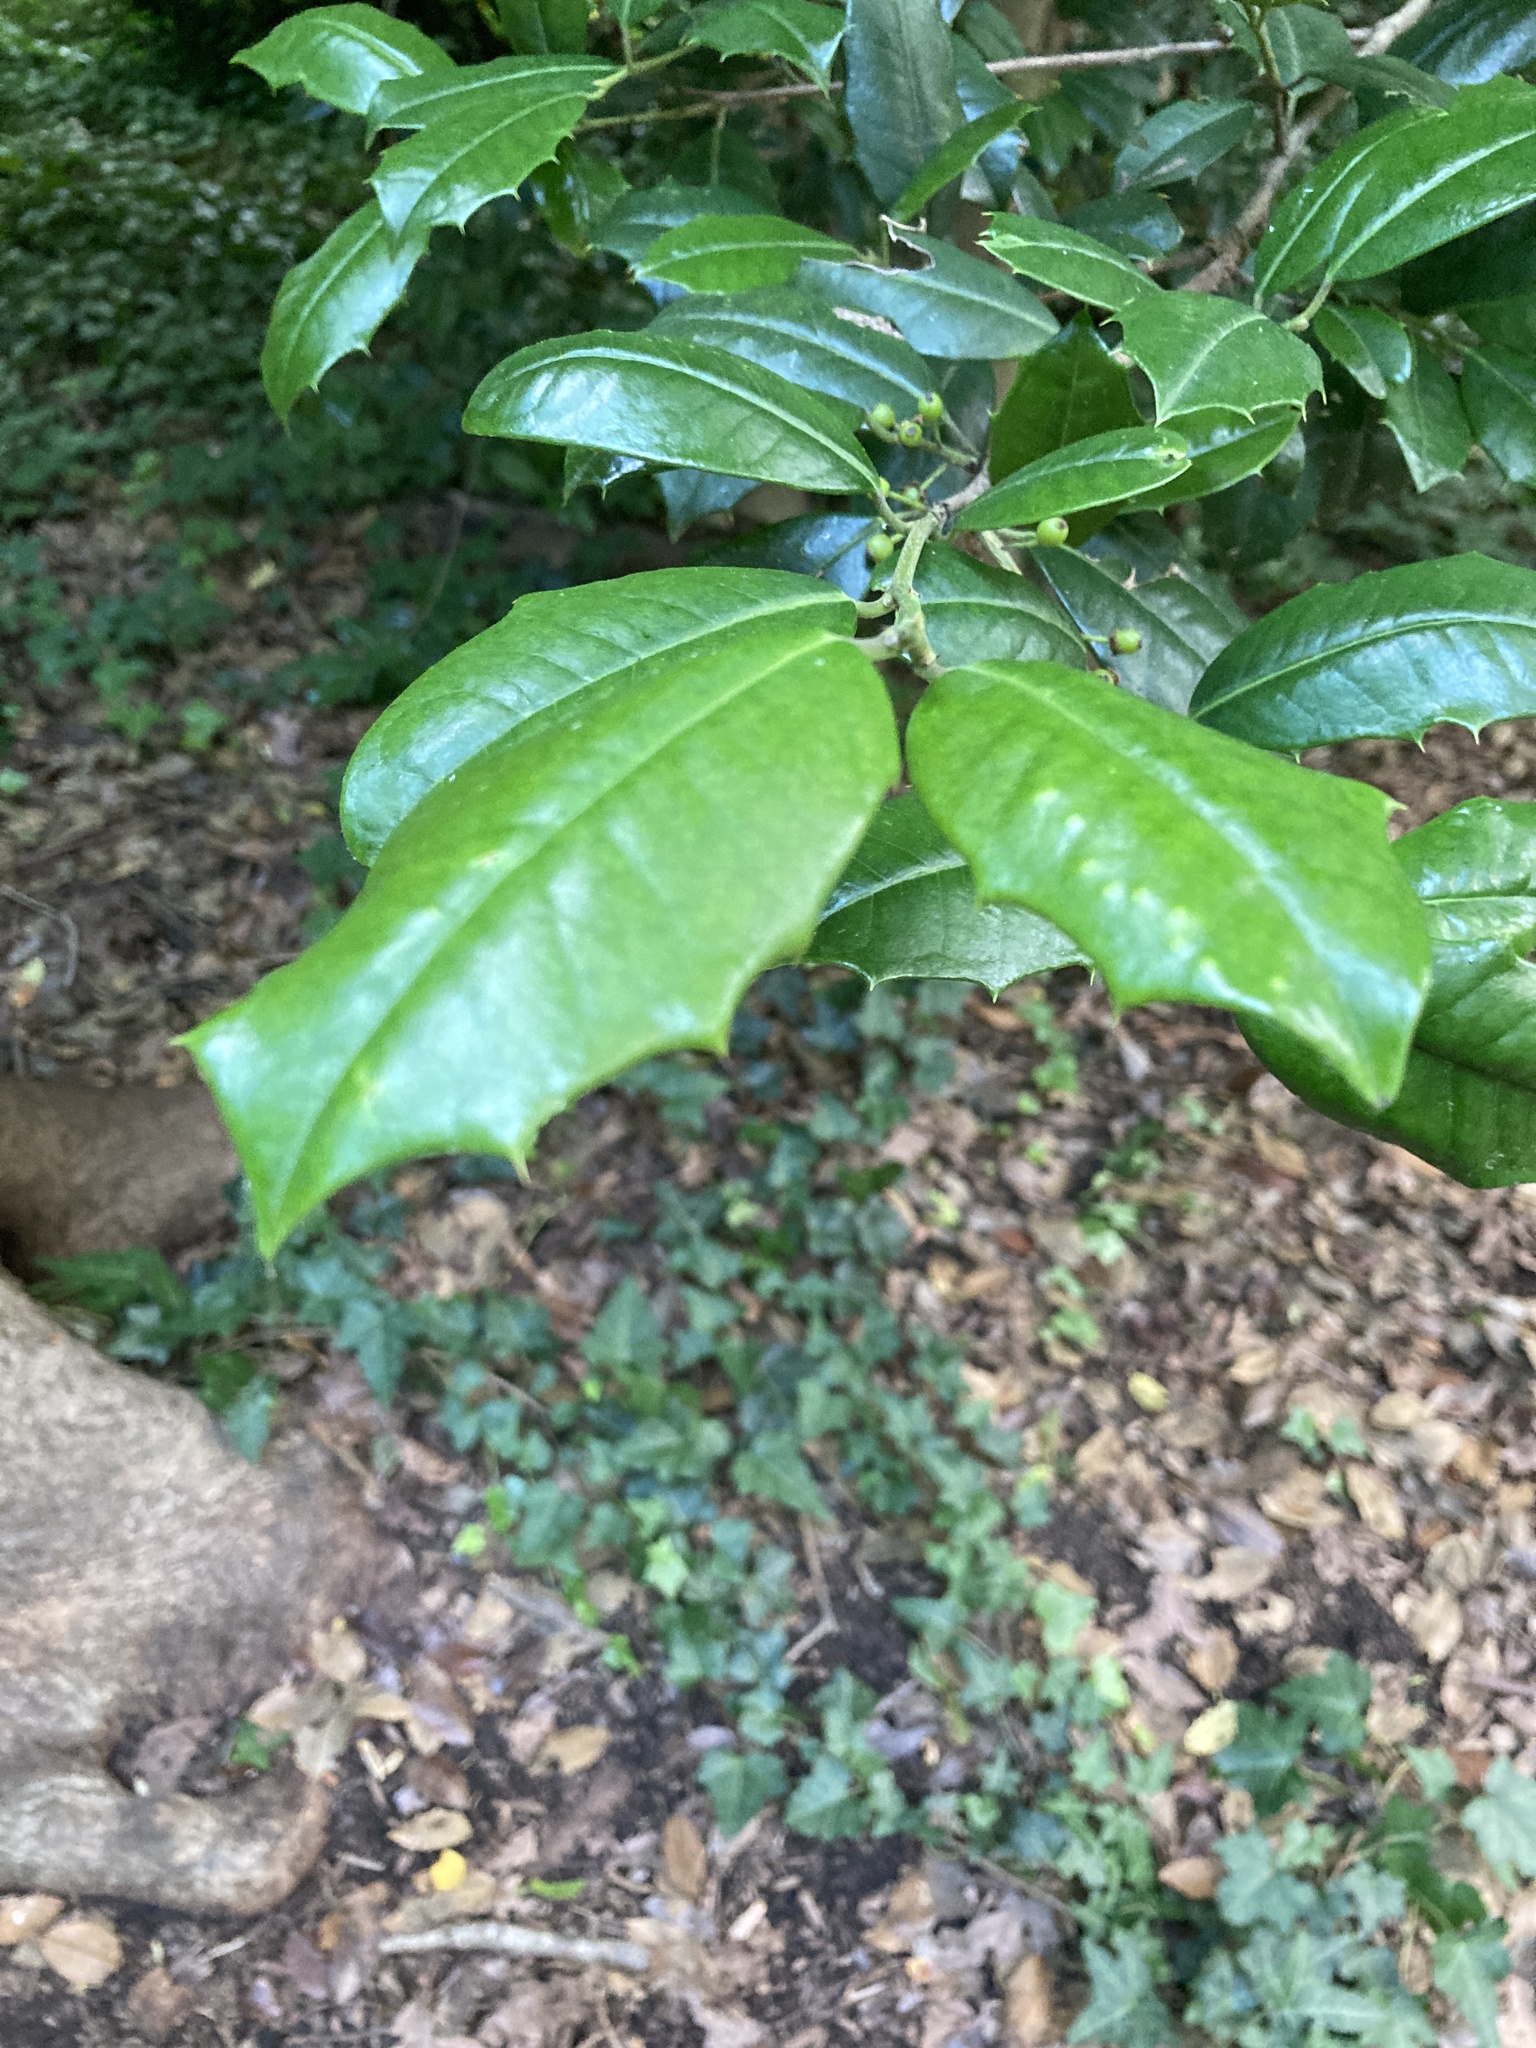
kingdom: Plantae
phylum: Tracheophyta
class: Magnoliopsida
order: Aquifoliales
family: Aquifoliaceae
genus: Ilex
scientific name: Ilex opaca
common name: American holly
